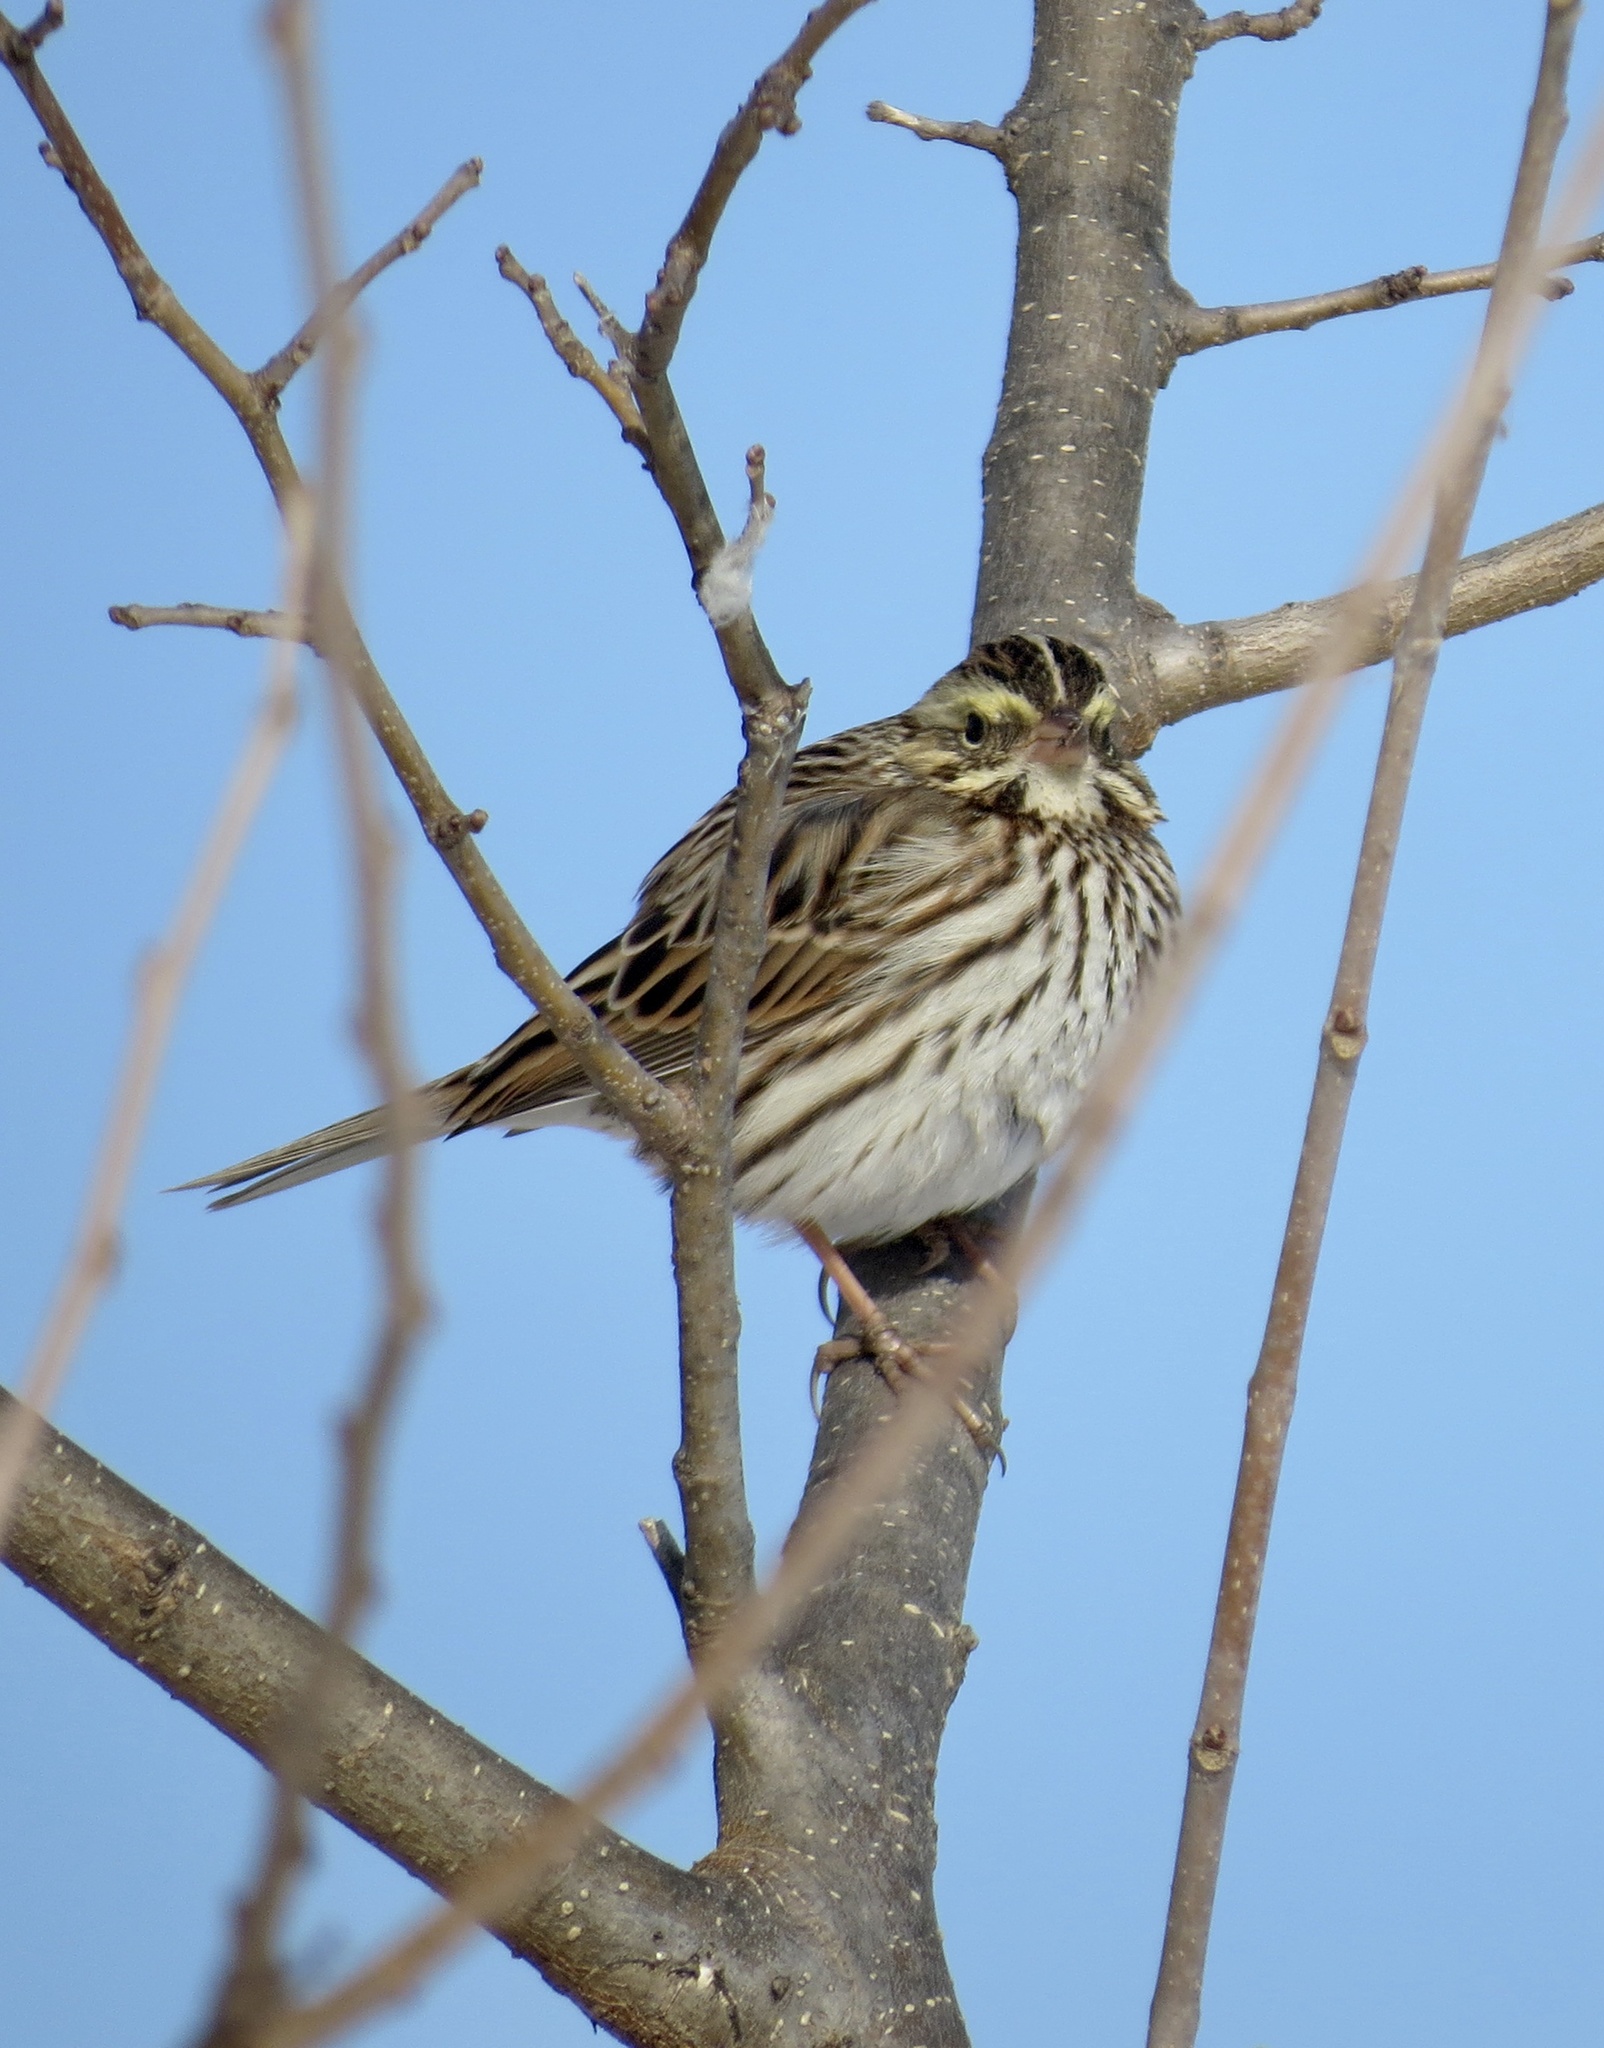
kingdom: Animalia
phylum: Chordata
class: Aves
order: Passeriformes
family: Passerellidae
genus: Passerculus
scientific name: Passerculus sandwichensis
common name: Savannah sparrow
